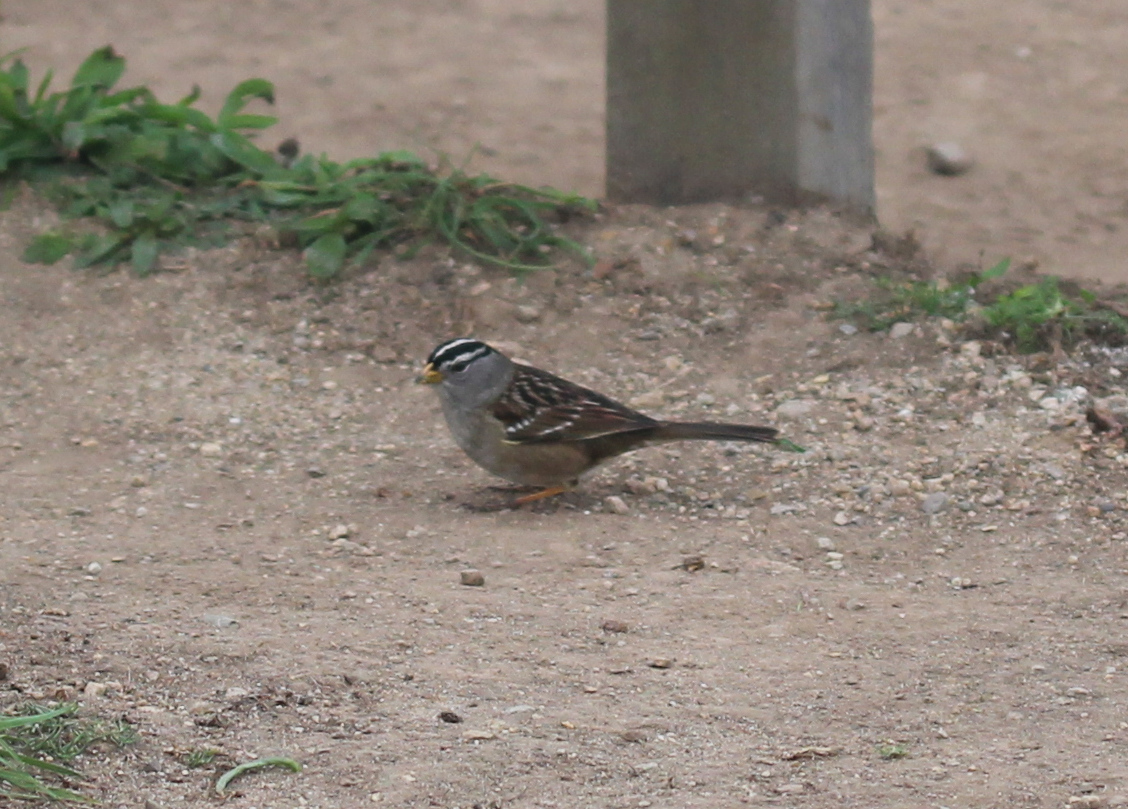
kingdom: Animalia
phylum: Chordata
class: Aves
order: Passeriformes
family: Passerellidae
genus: Zonotrichia
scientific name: Zonotrichia leucophrys
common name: White-crowned sparrow
